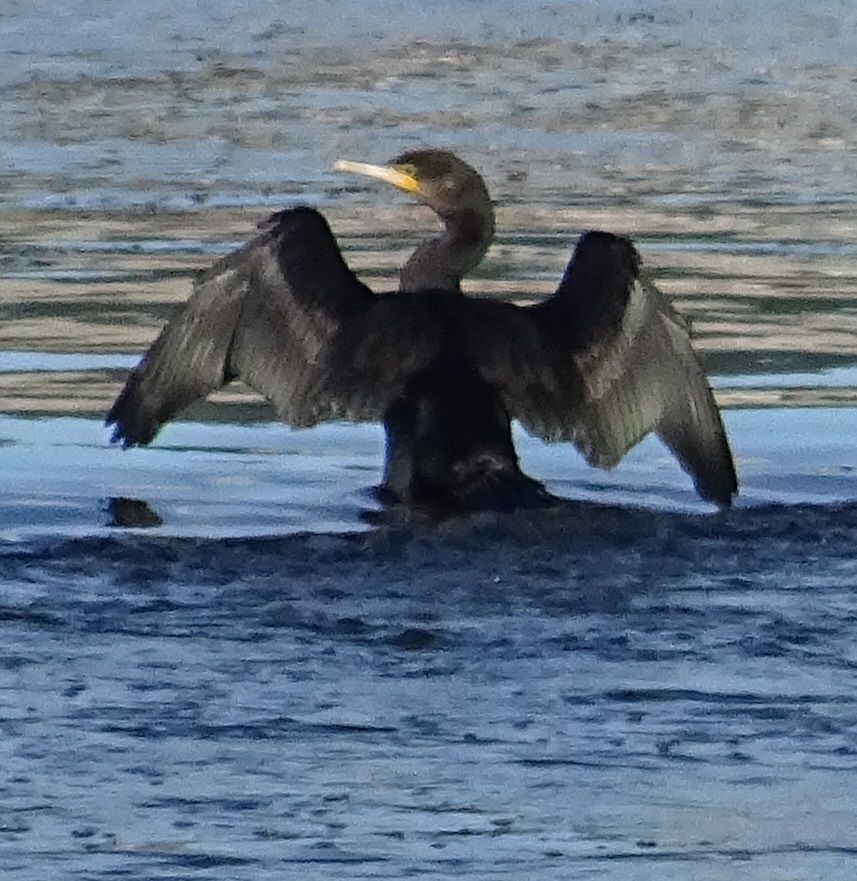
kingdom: Animalia
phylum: Chordata
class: Aves
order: Suliformes
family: Phalacrocoracidae
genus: Phalacrocorax
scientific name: Phalacrocorax carbo
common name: Great cormorant
